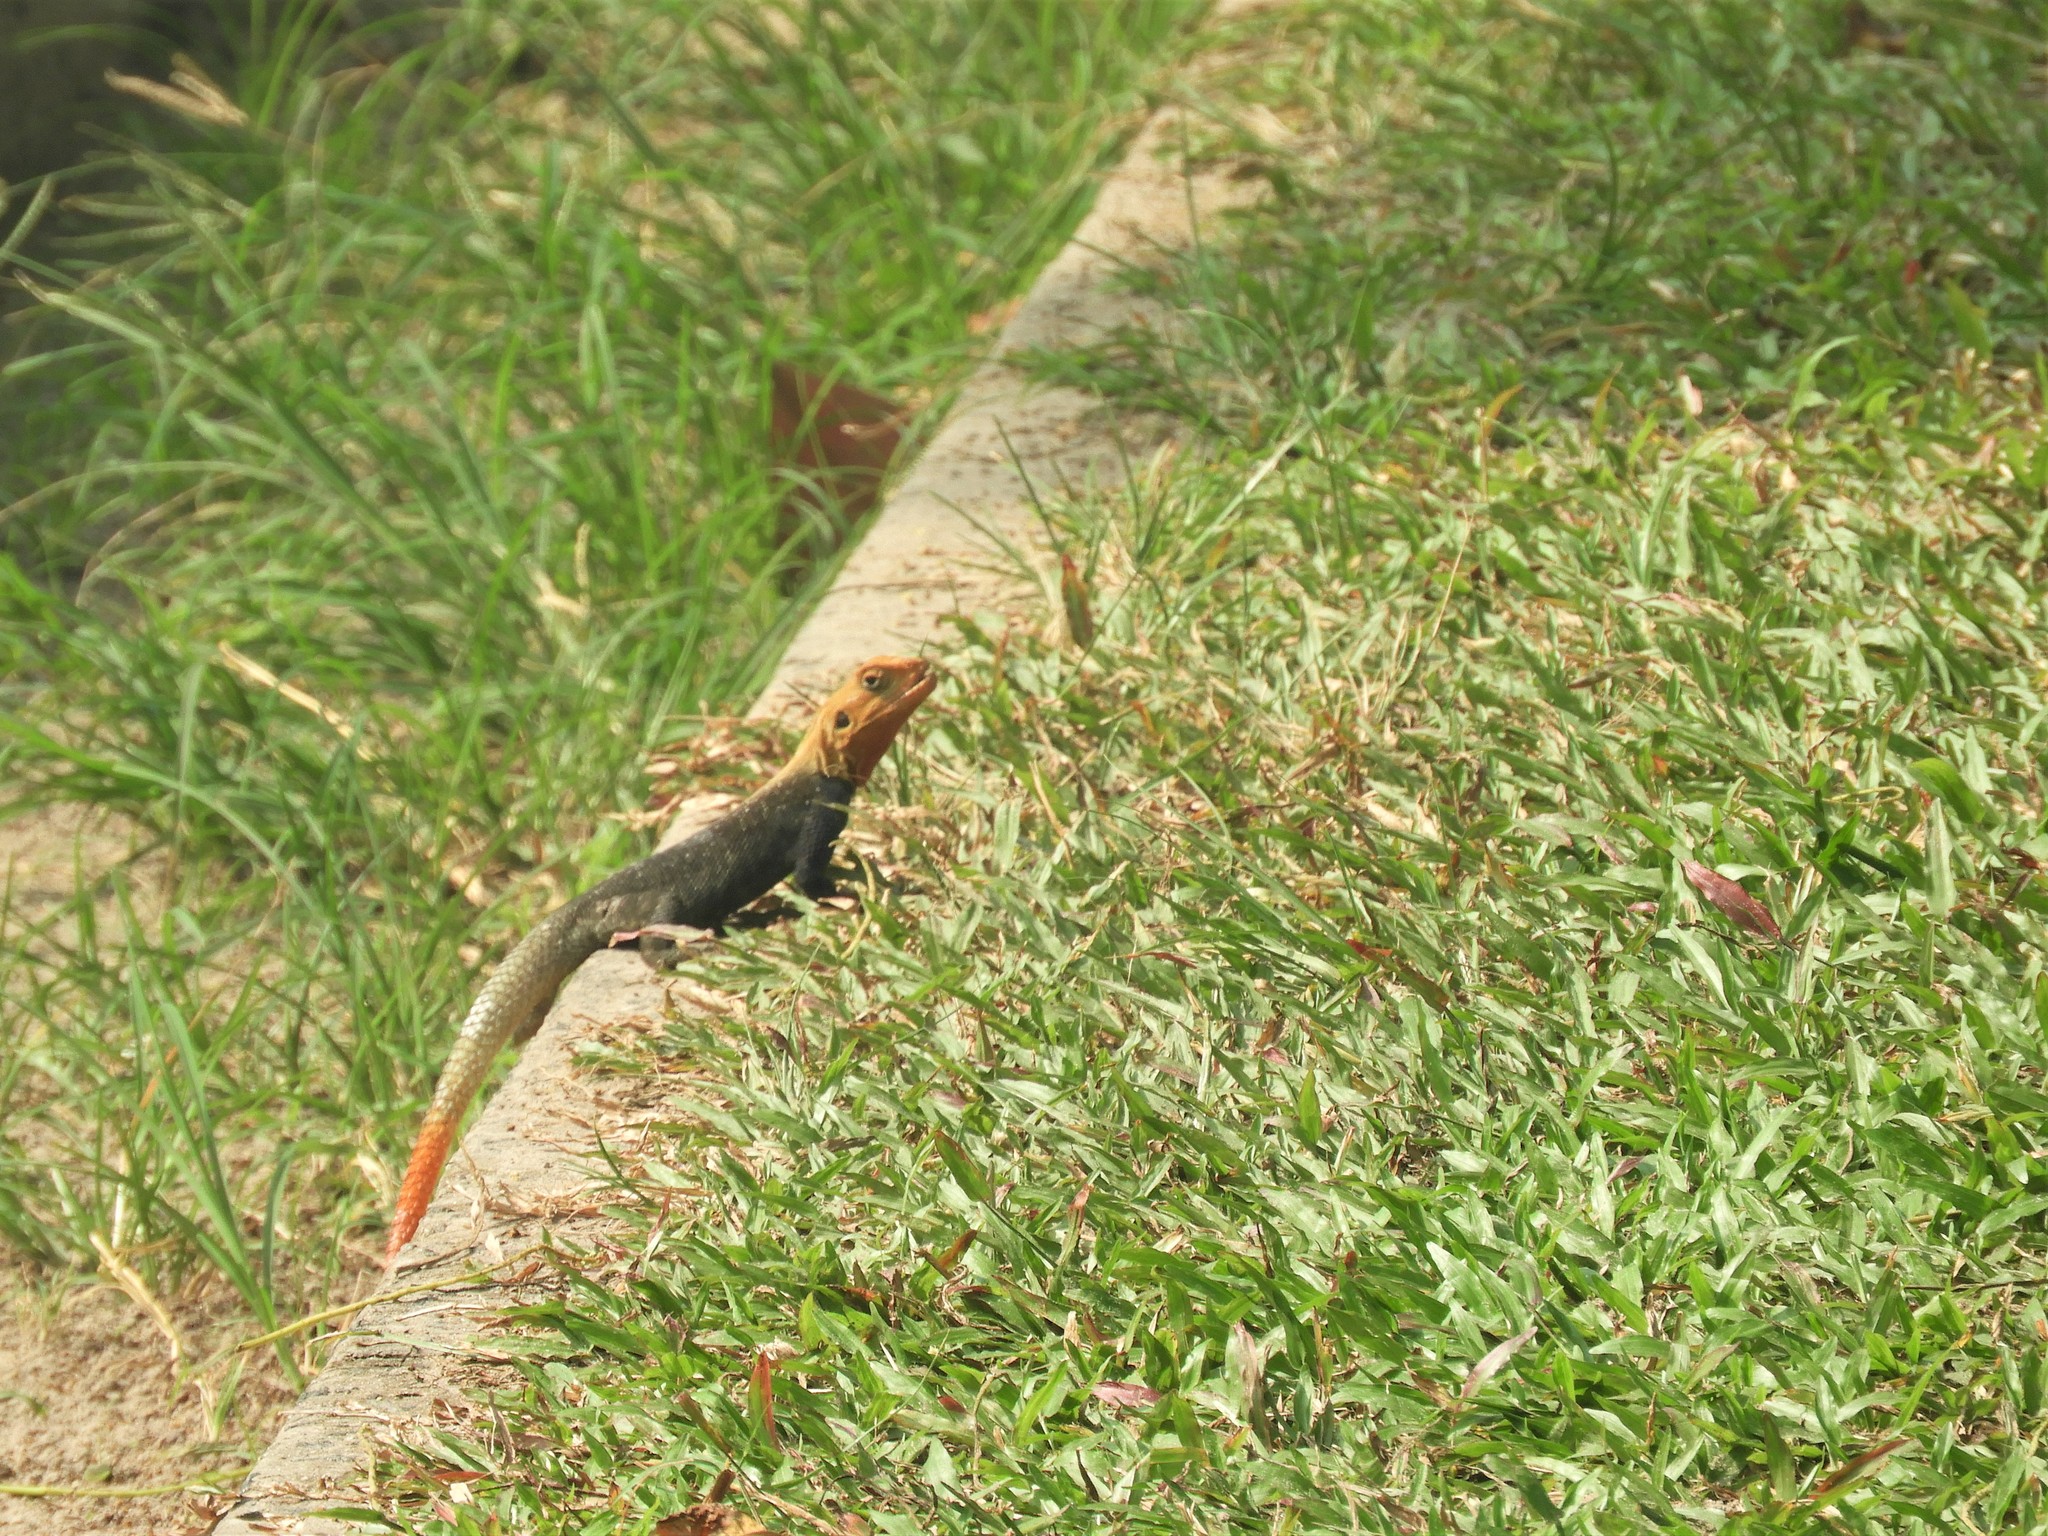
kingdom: Animalia
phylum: Chordata
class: Squamata
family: Agamidae
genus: Agama
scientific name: Agama agama
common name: Common agama
